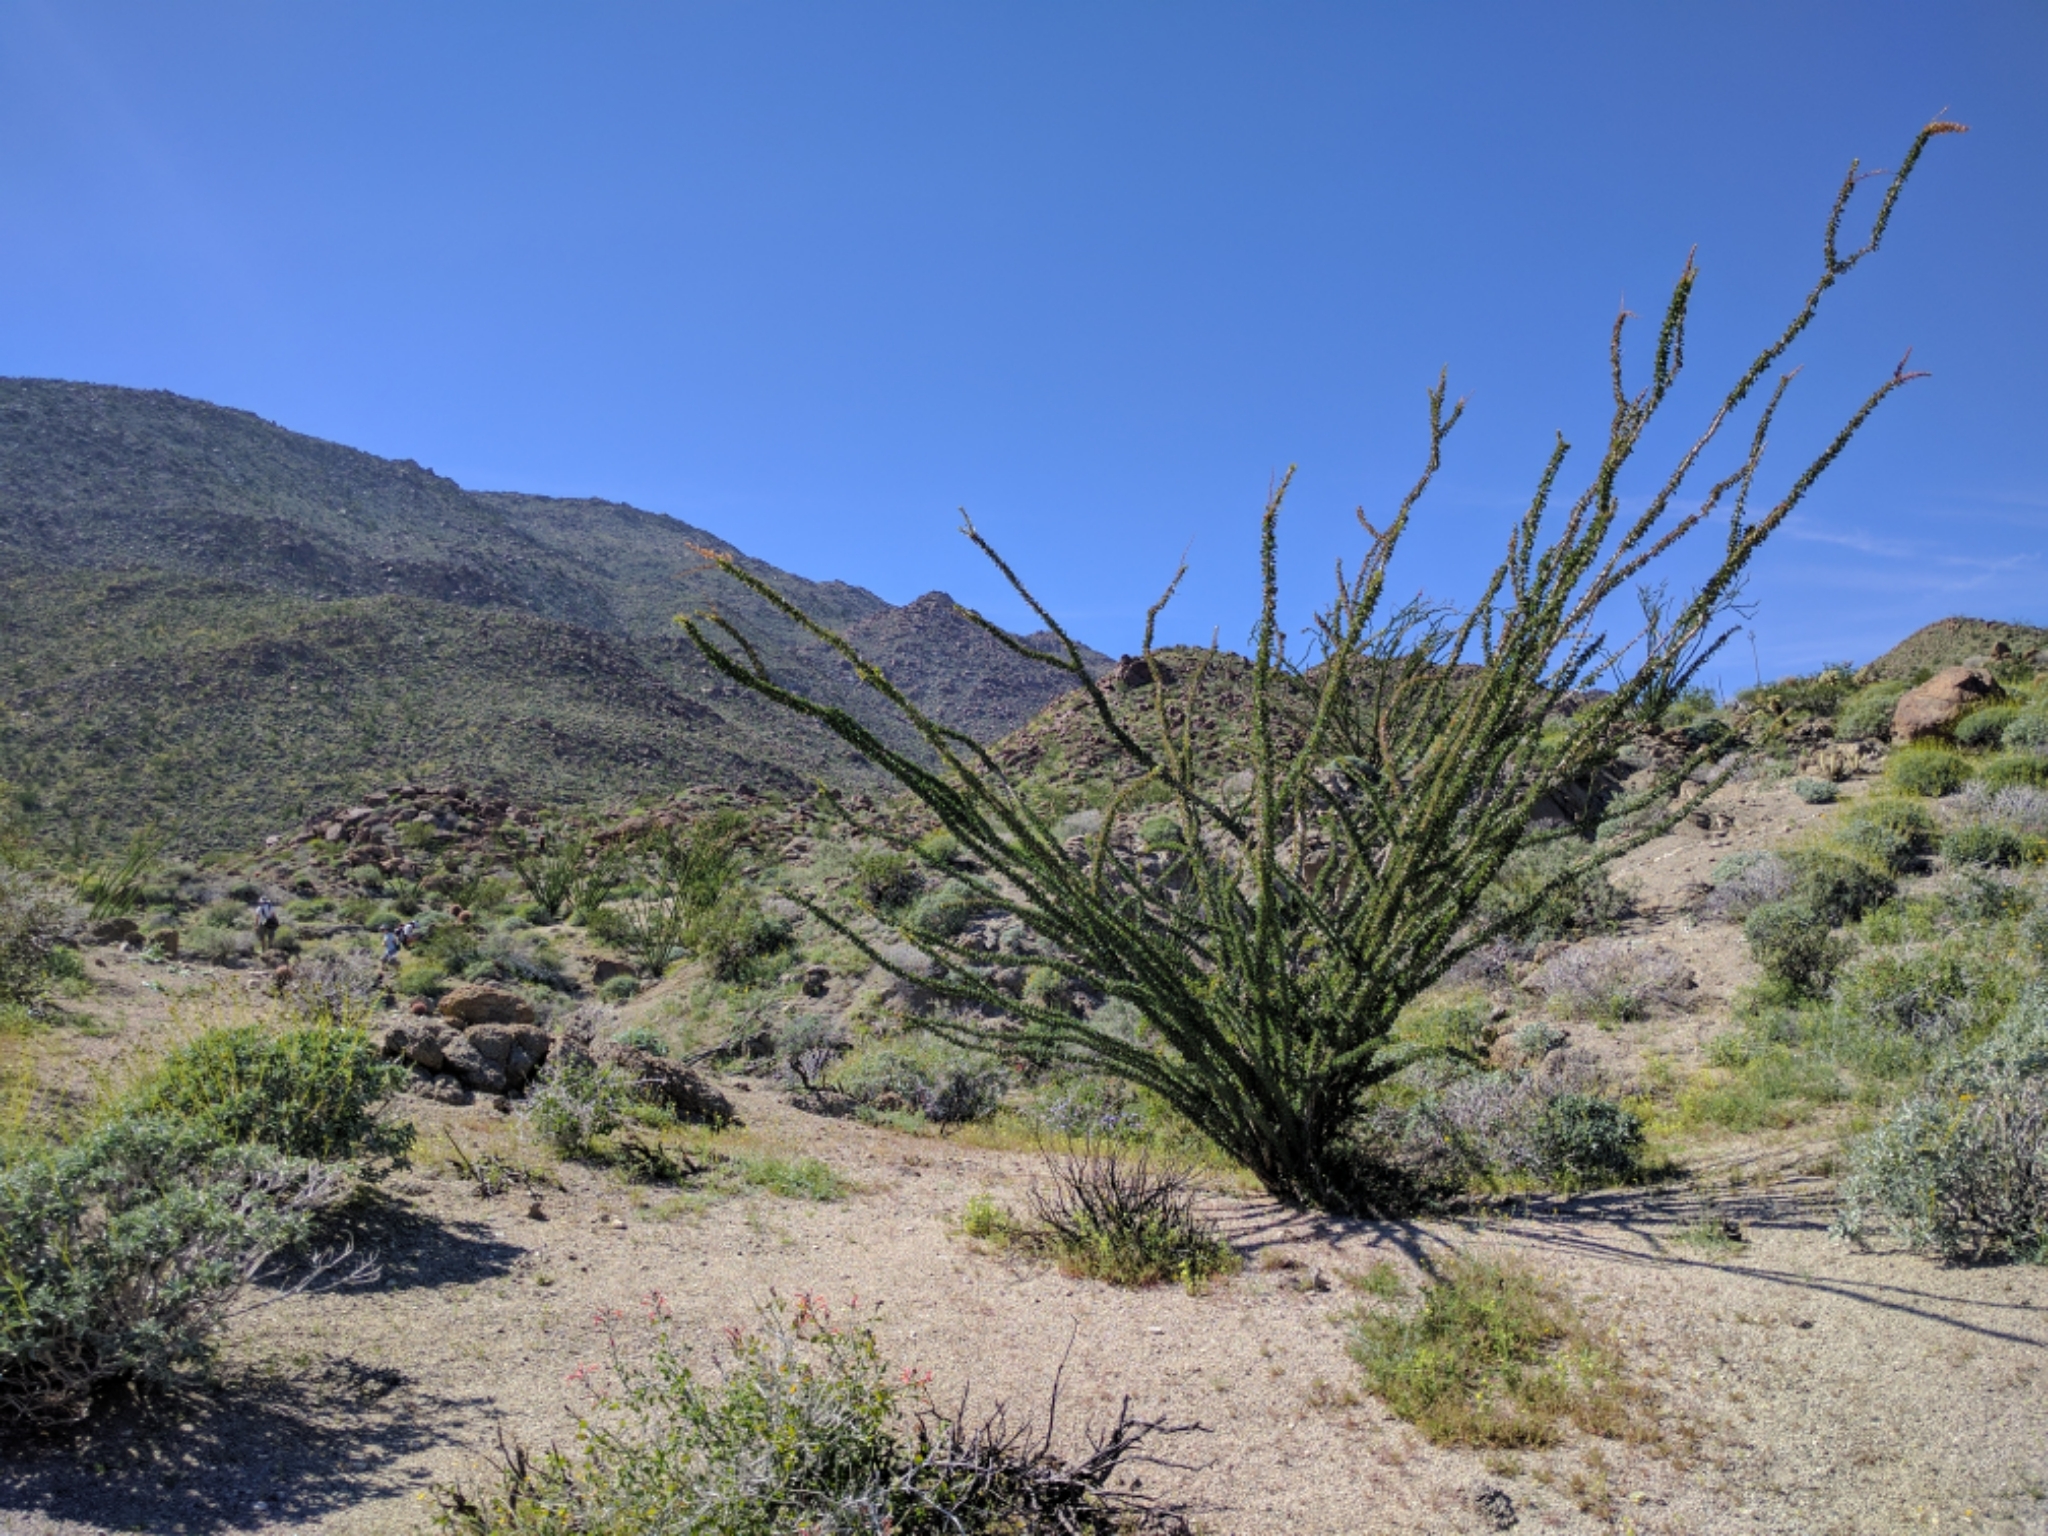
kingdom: Plantae
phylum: Tracheophyta
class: Magnoliopsida
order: Ericales
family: Fouquieriaceae
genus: Fouquieria
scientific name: Fouquieria splendens
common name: Vine-cactus
